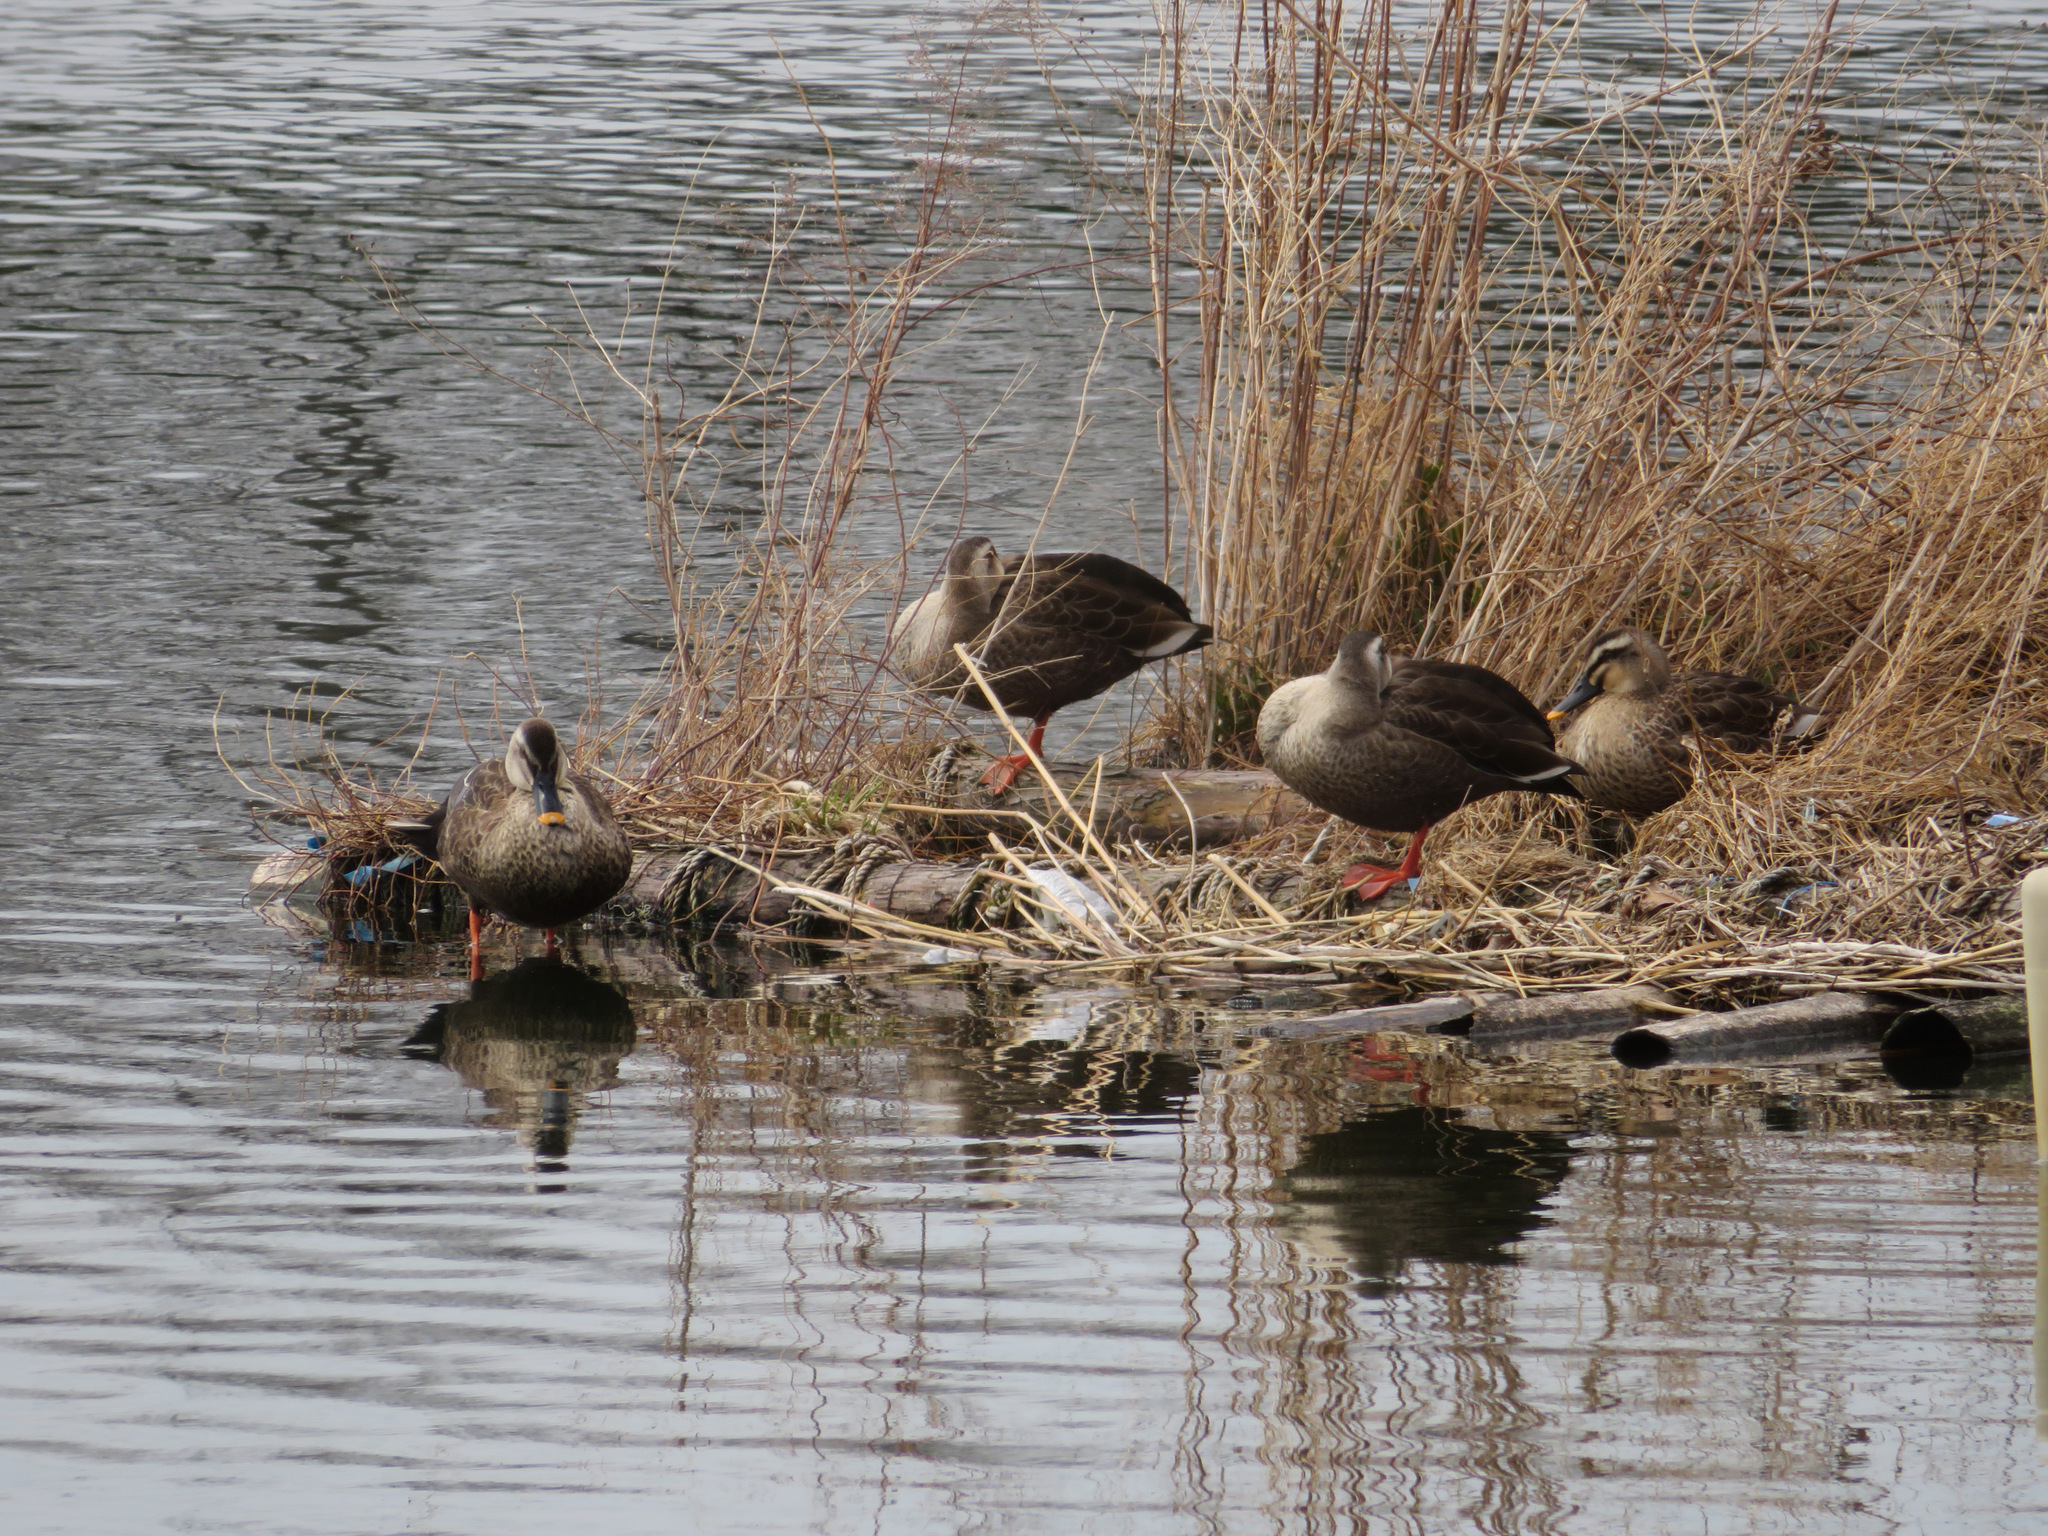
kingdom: Animalia
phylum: Chordata
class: Aves
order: Anseriformes
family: Anatidae
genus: Anas
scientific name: Anas zonorhyncha
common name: Eastern spot-billed duck
